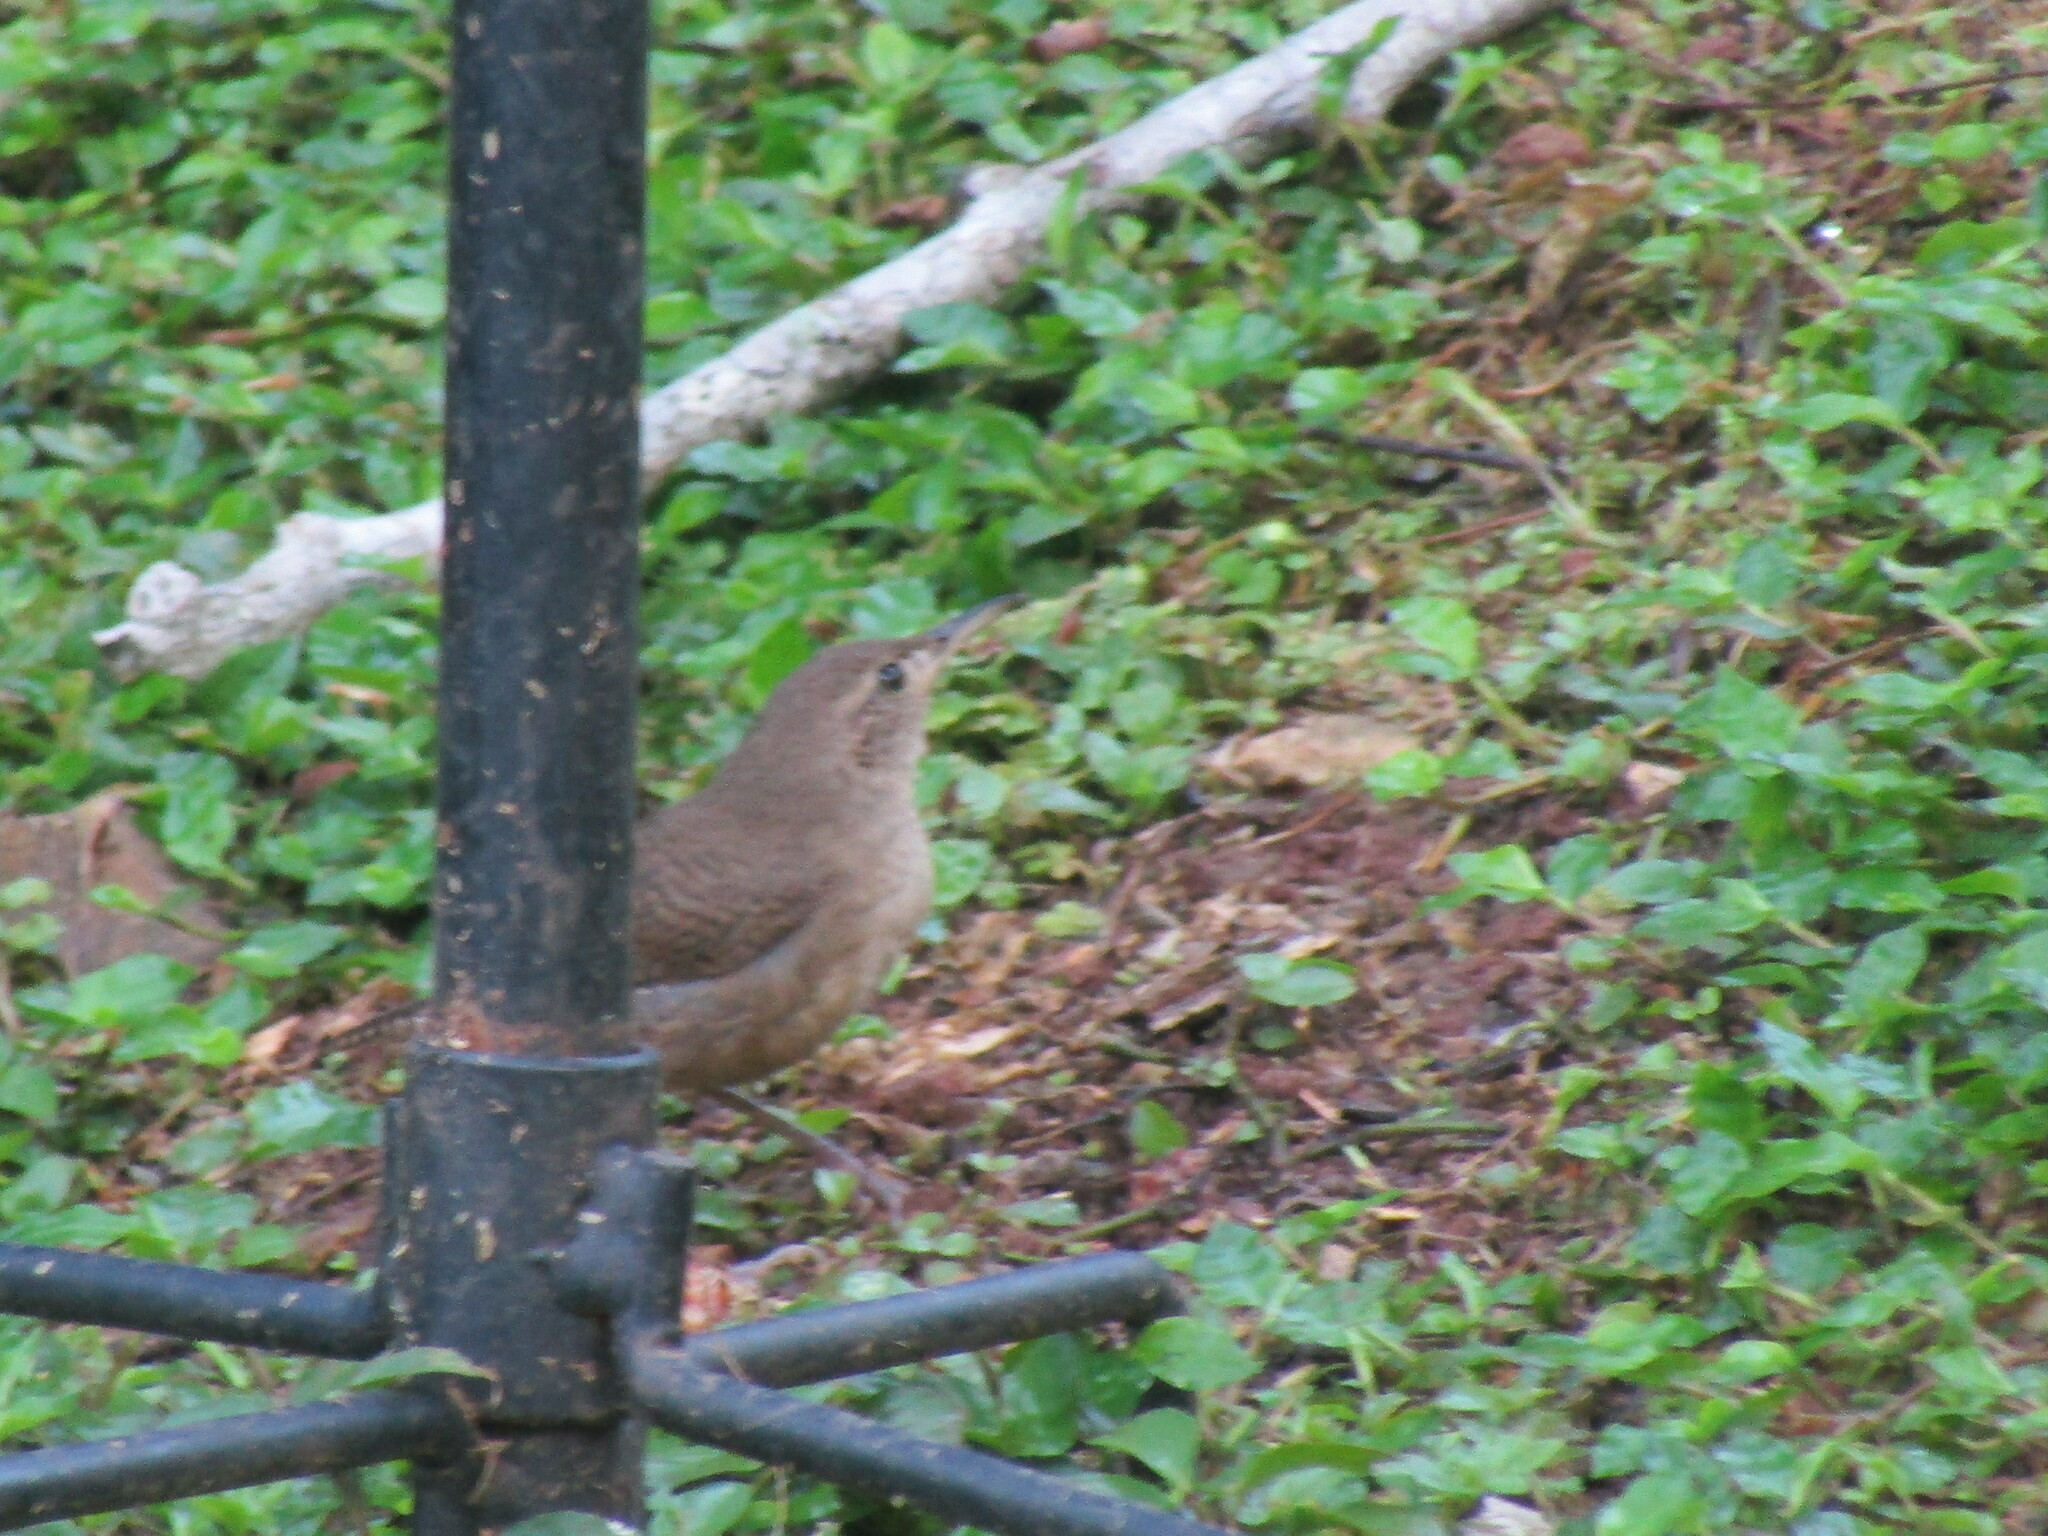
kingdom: Animalia
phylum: Chordata
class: Aves
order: Passeriformes
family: Troglodytidae
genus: Troglodytes
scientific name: Troglodytes aedon
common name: House wren
